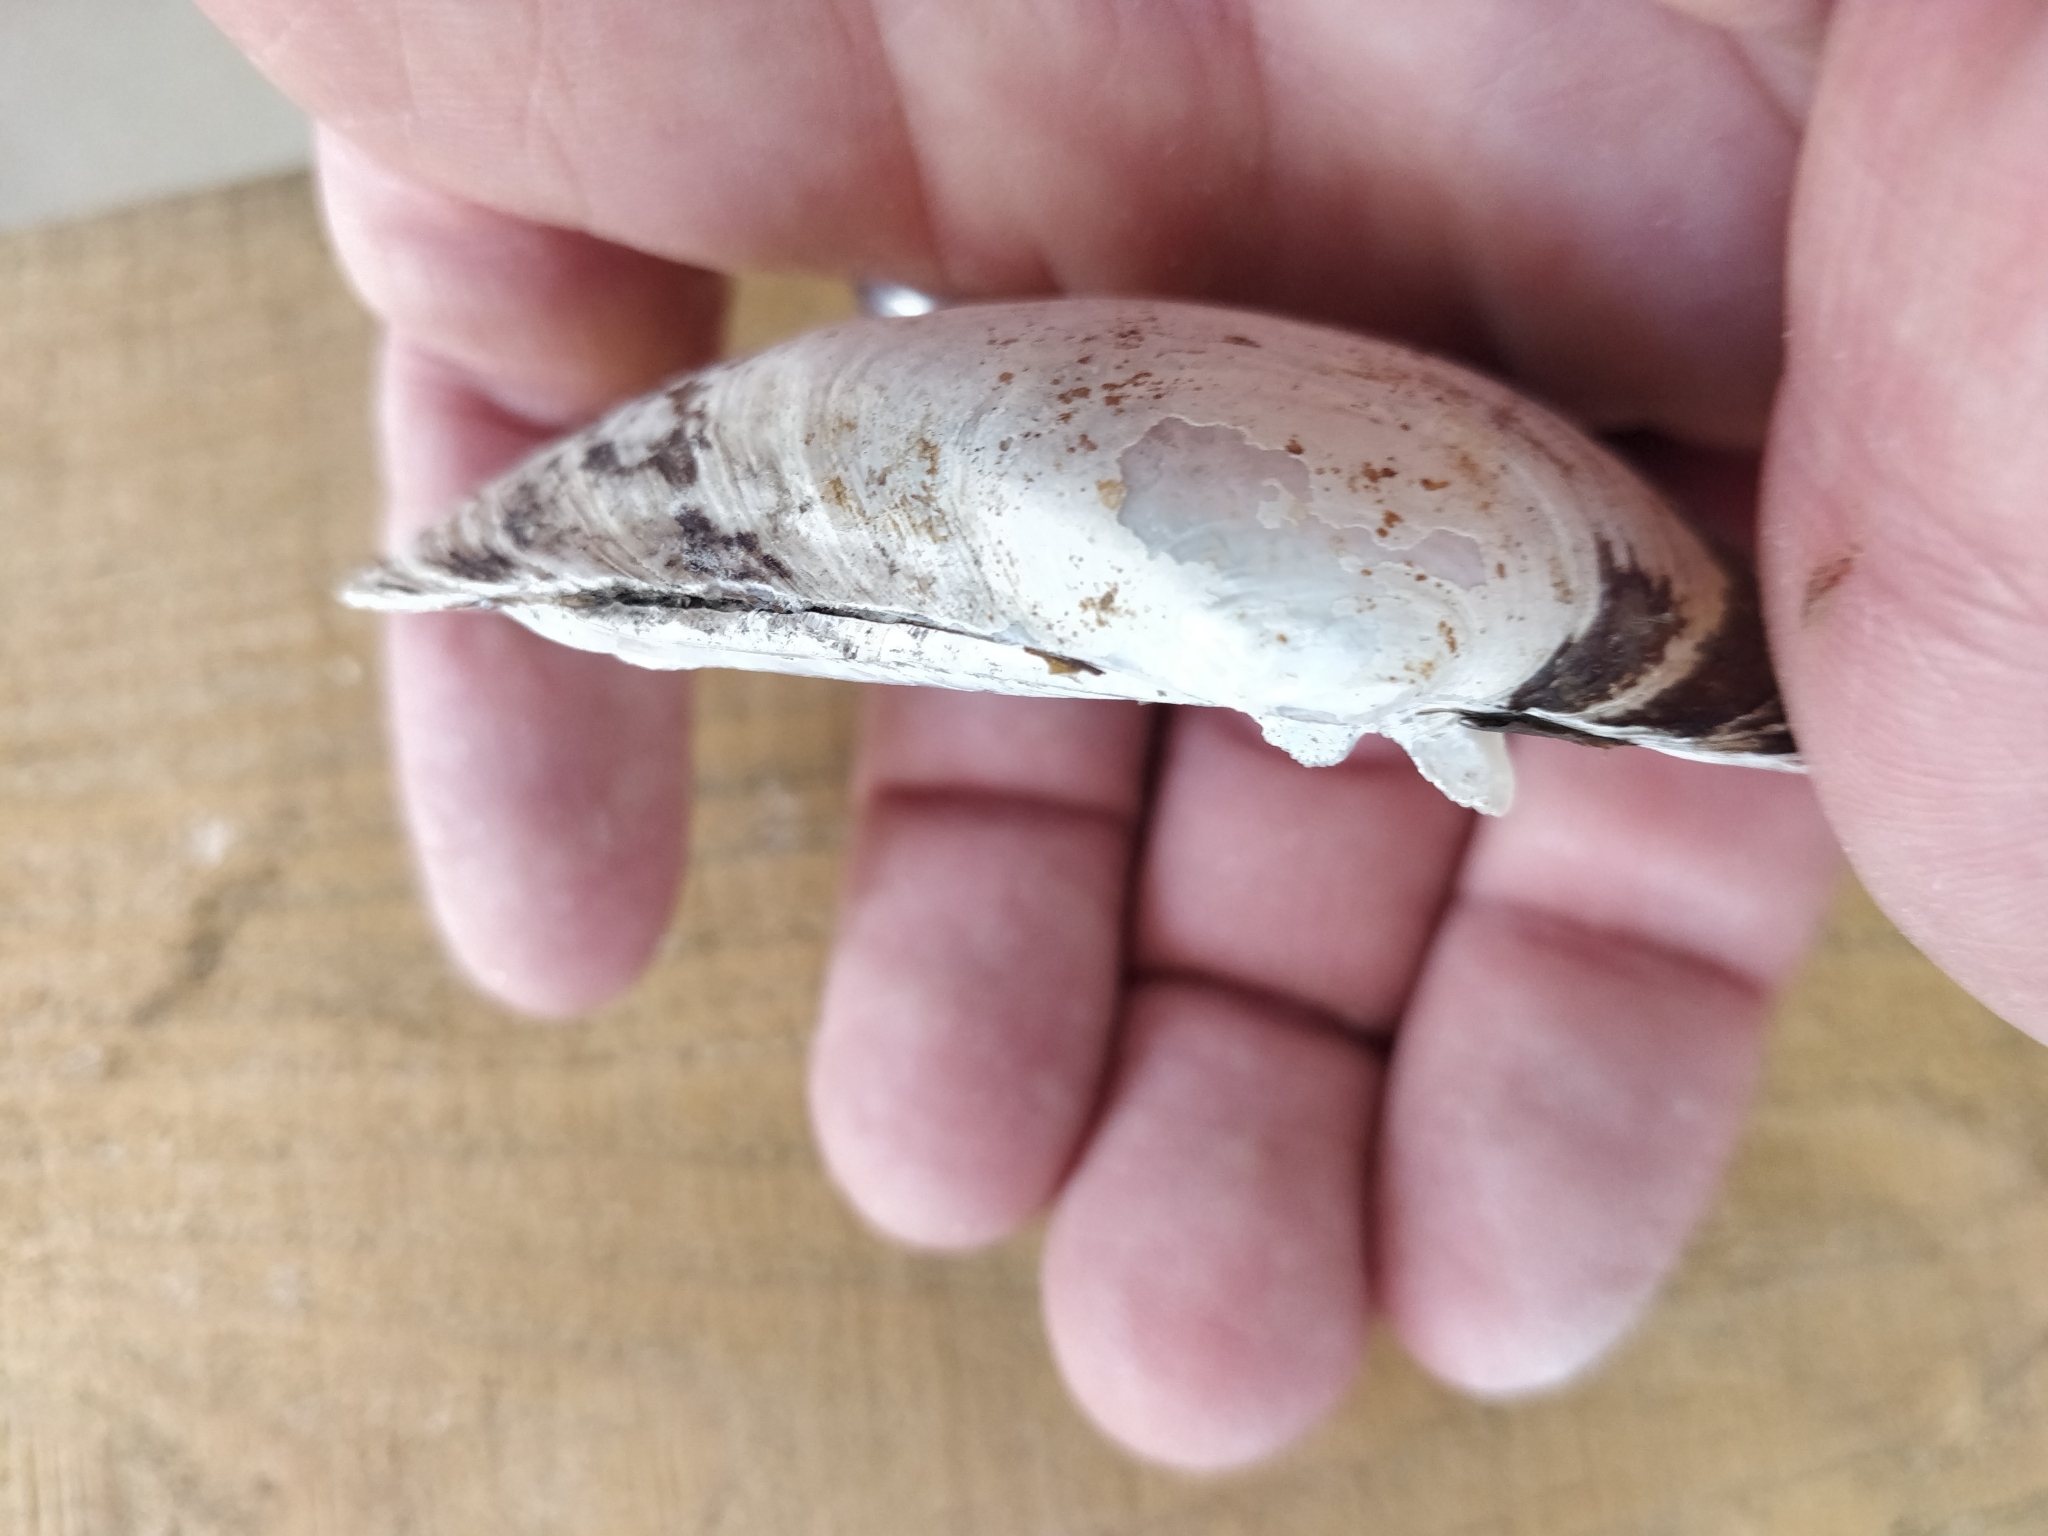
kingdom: Animalia
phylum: Mollusca
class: Bivalvia
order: Unionida
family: Unionidae
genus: Lampsilis
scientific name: Lampsilis cardium
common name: Plain pocketbook
